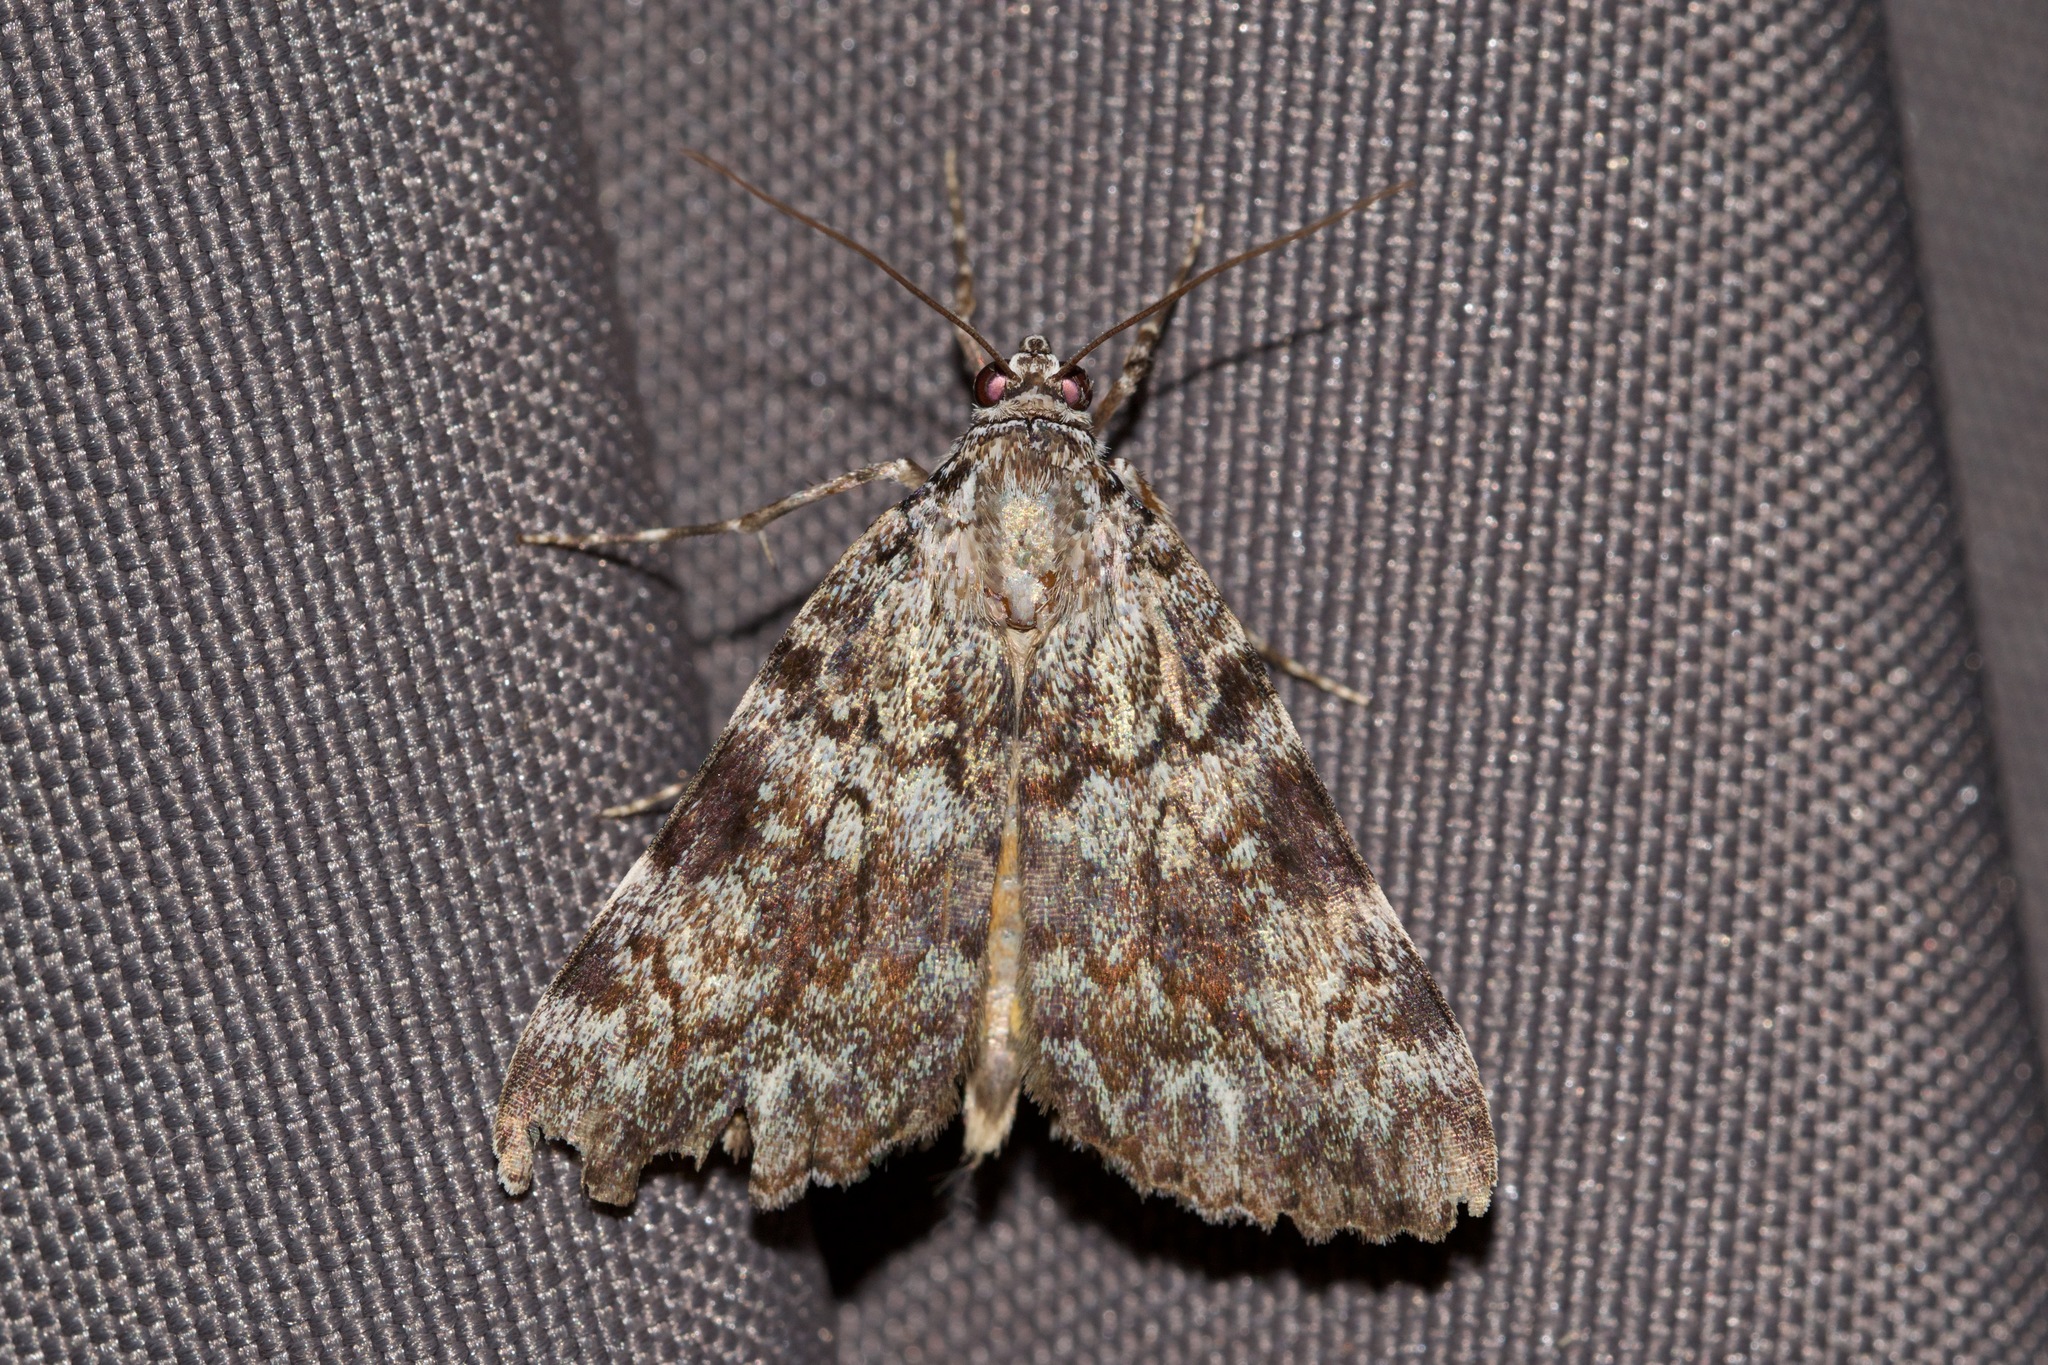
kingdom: Animalia
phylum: Arthropoda
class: Insecta
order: Lepidoptera
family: Erebidae
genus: Catocala
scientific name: Catocala lineella
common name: Little lined underwing
